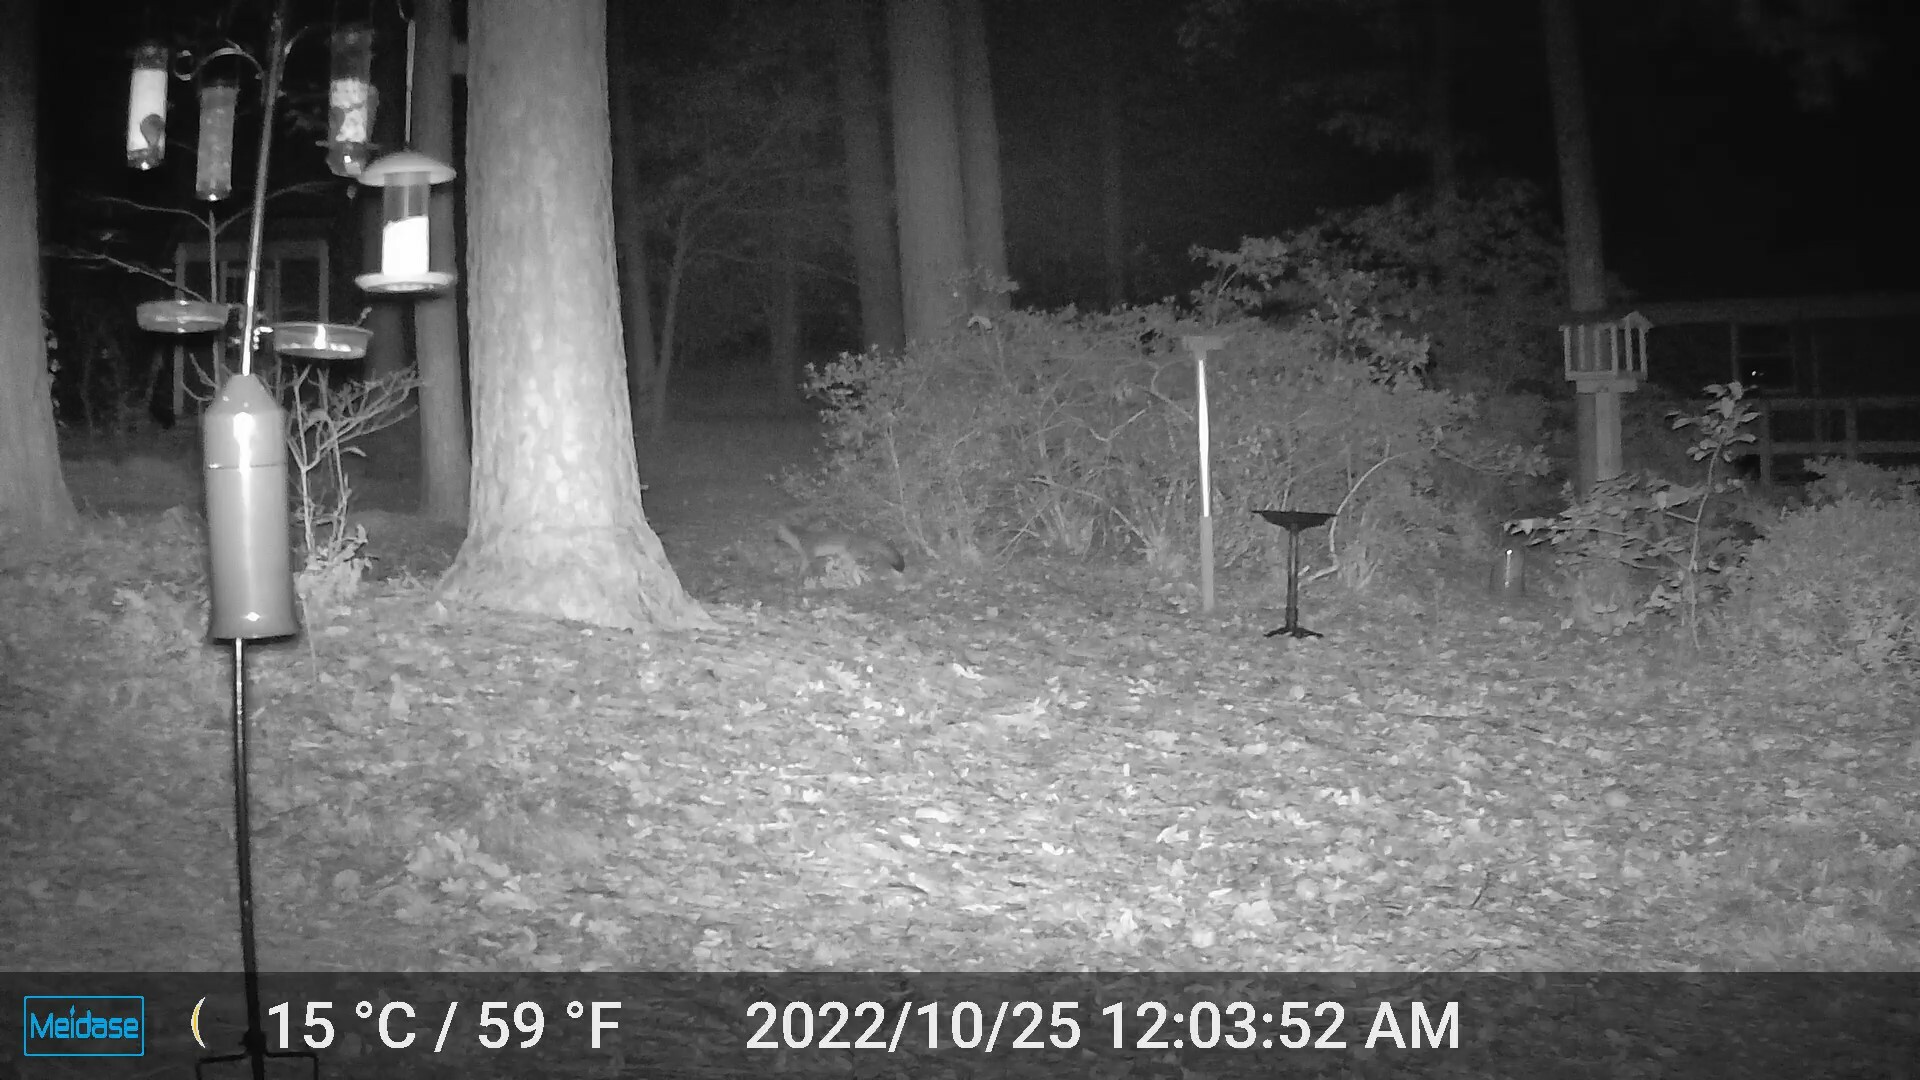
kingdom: Animalia
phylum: Chordata
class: Mammalia
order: Carnivora
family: Canidae
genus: Urocyon
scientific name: Urocyon cinereoargenteus
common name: Gray fox
